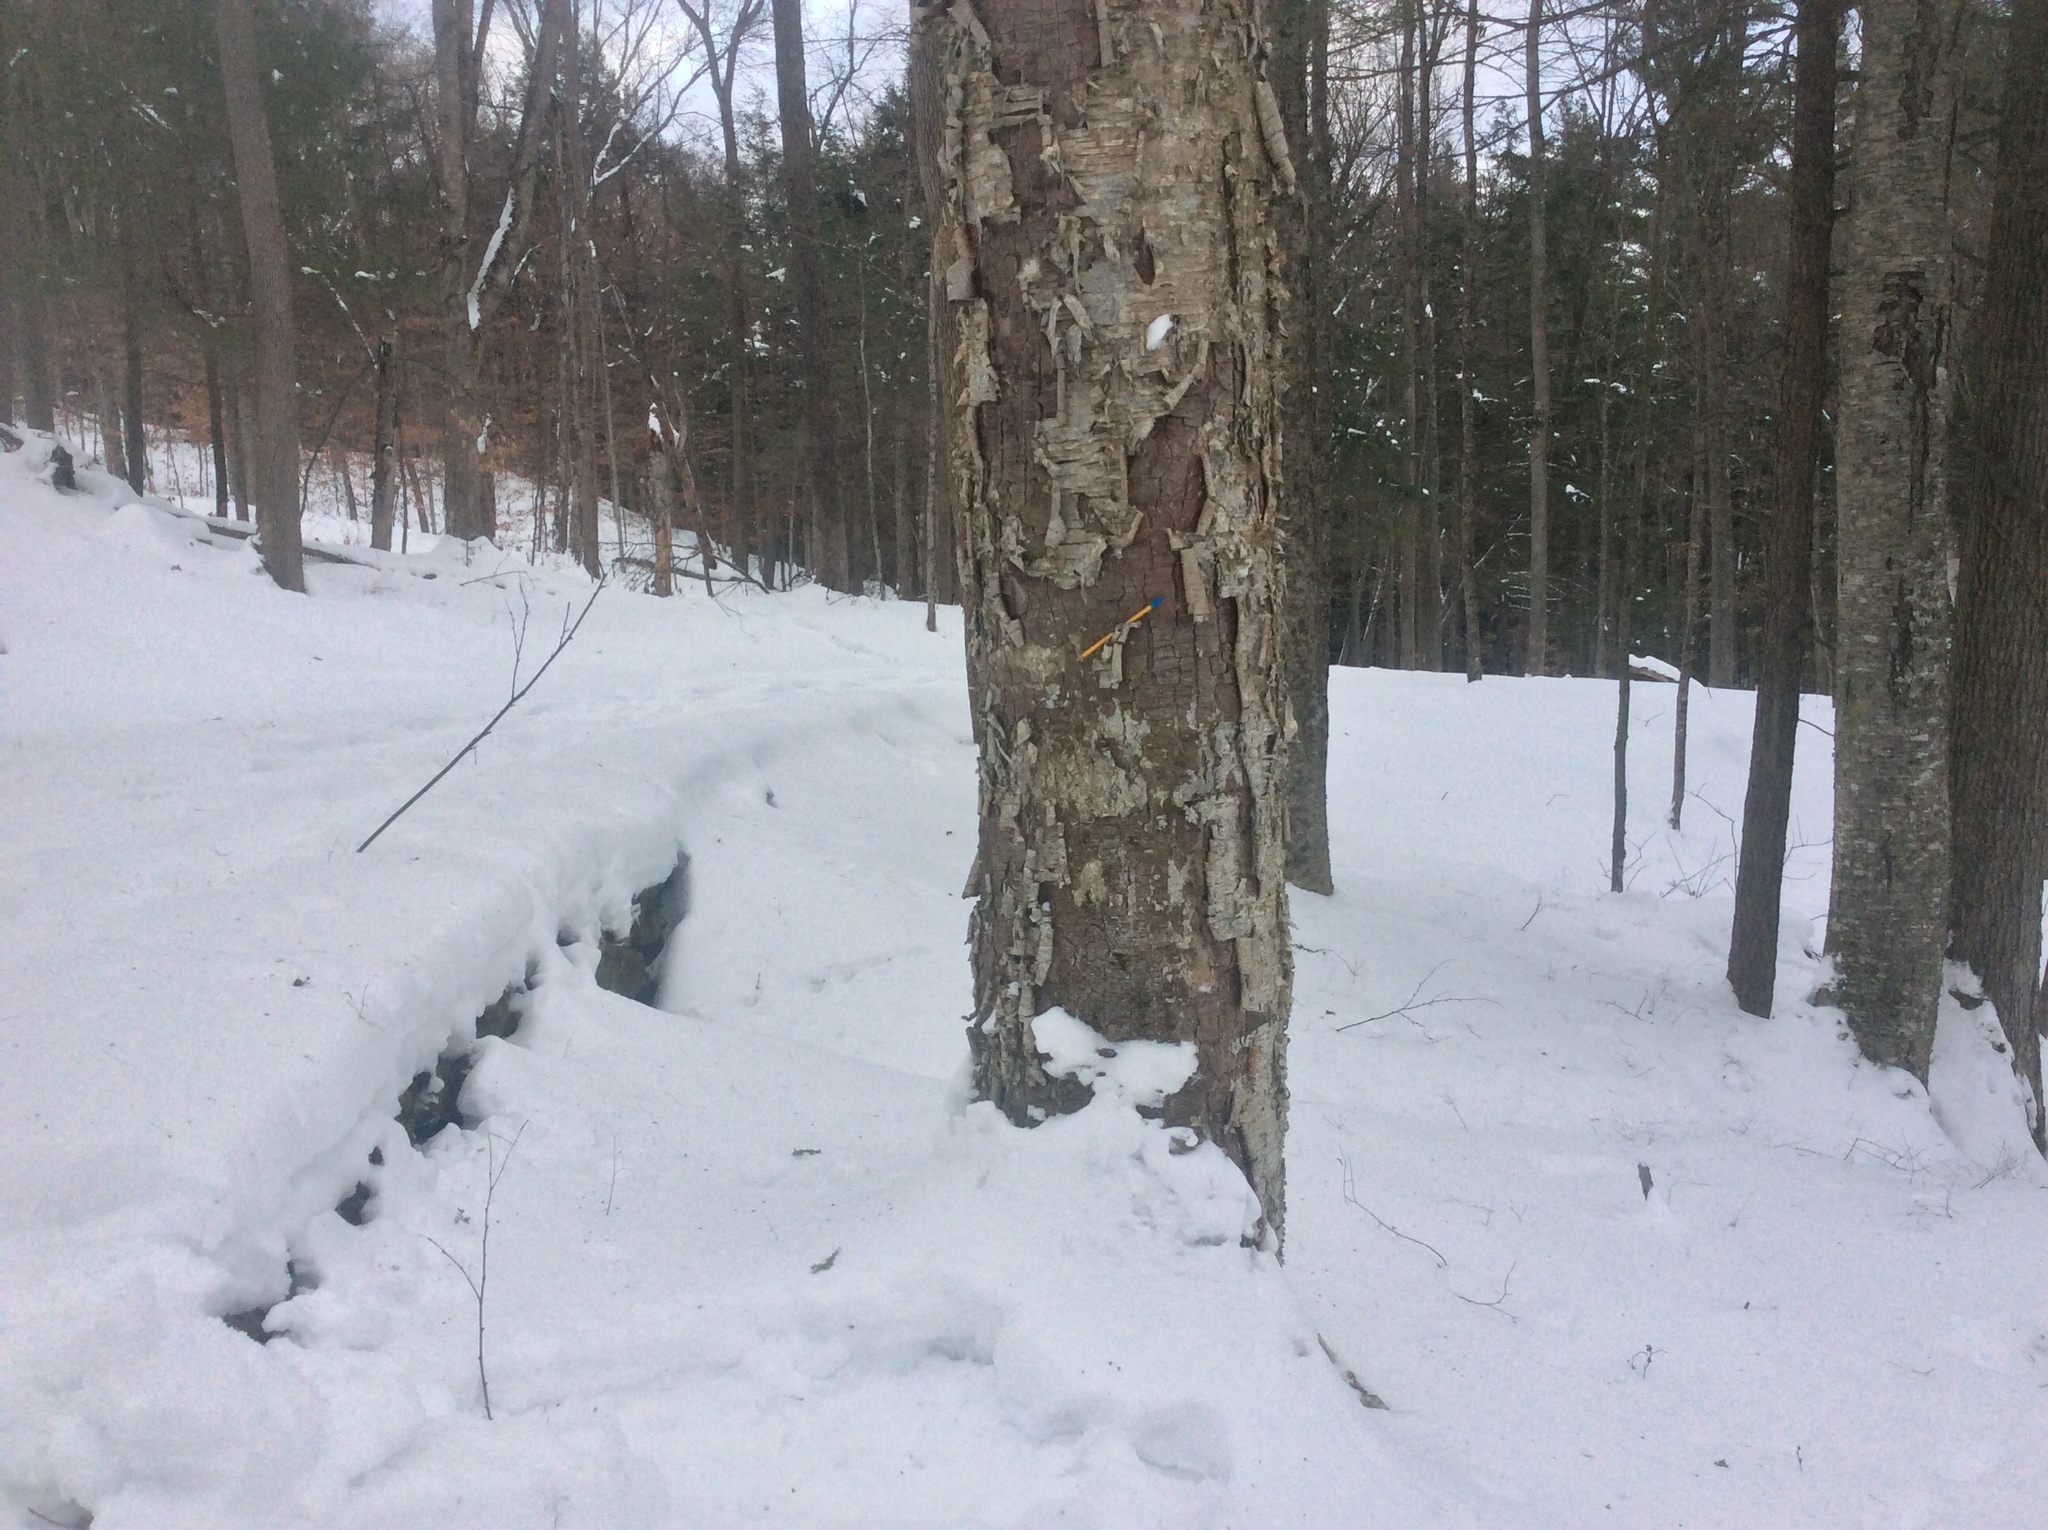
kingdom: Plantae
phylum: Tracheophyta
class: Magnoliopsida
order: Fagales
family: Betulaceae
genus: Betula
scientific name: Betula alleghaniensis
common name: Yellow birch
